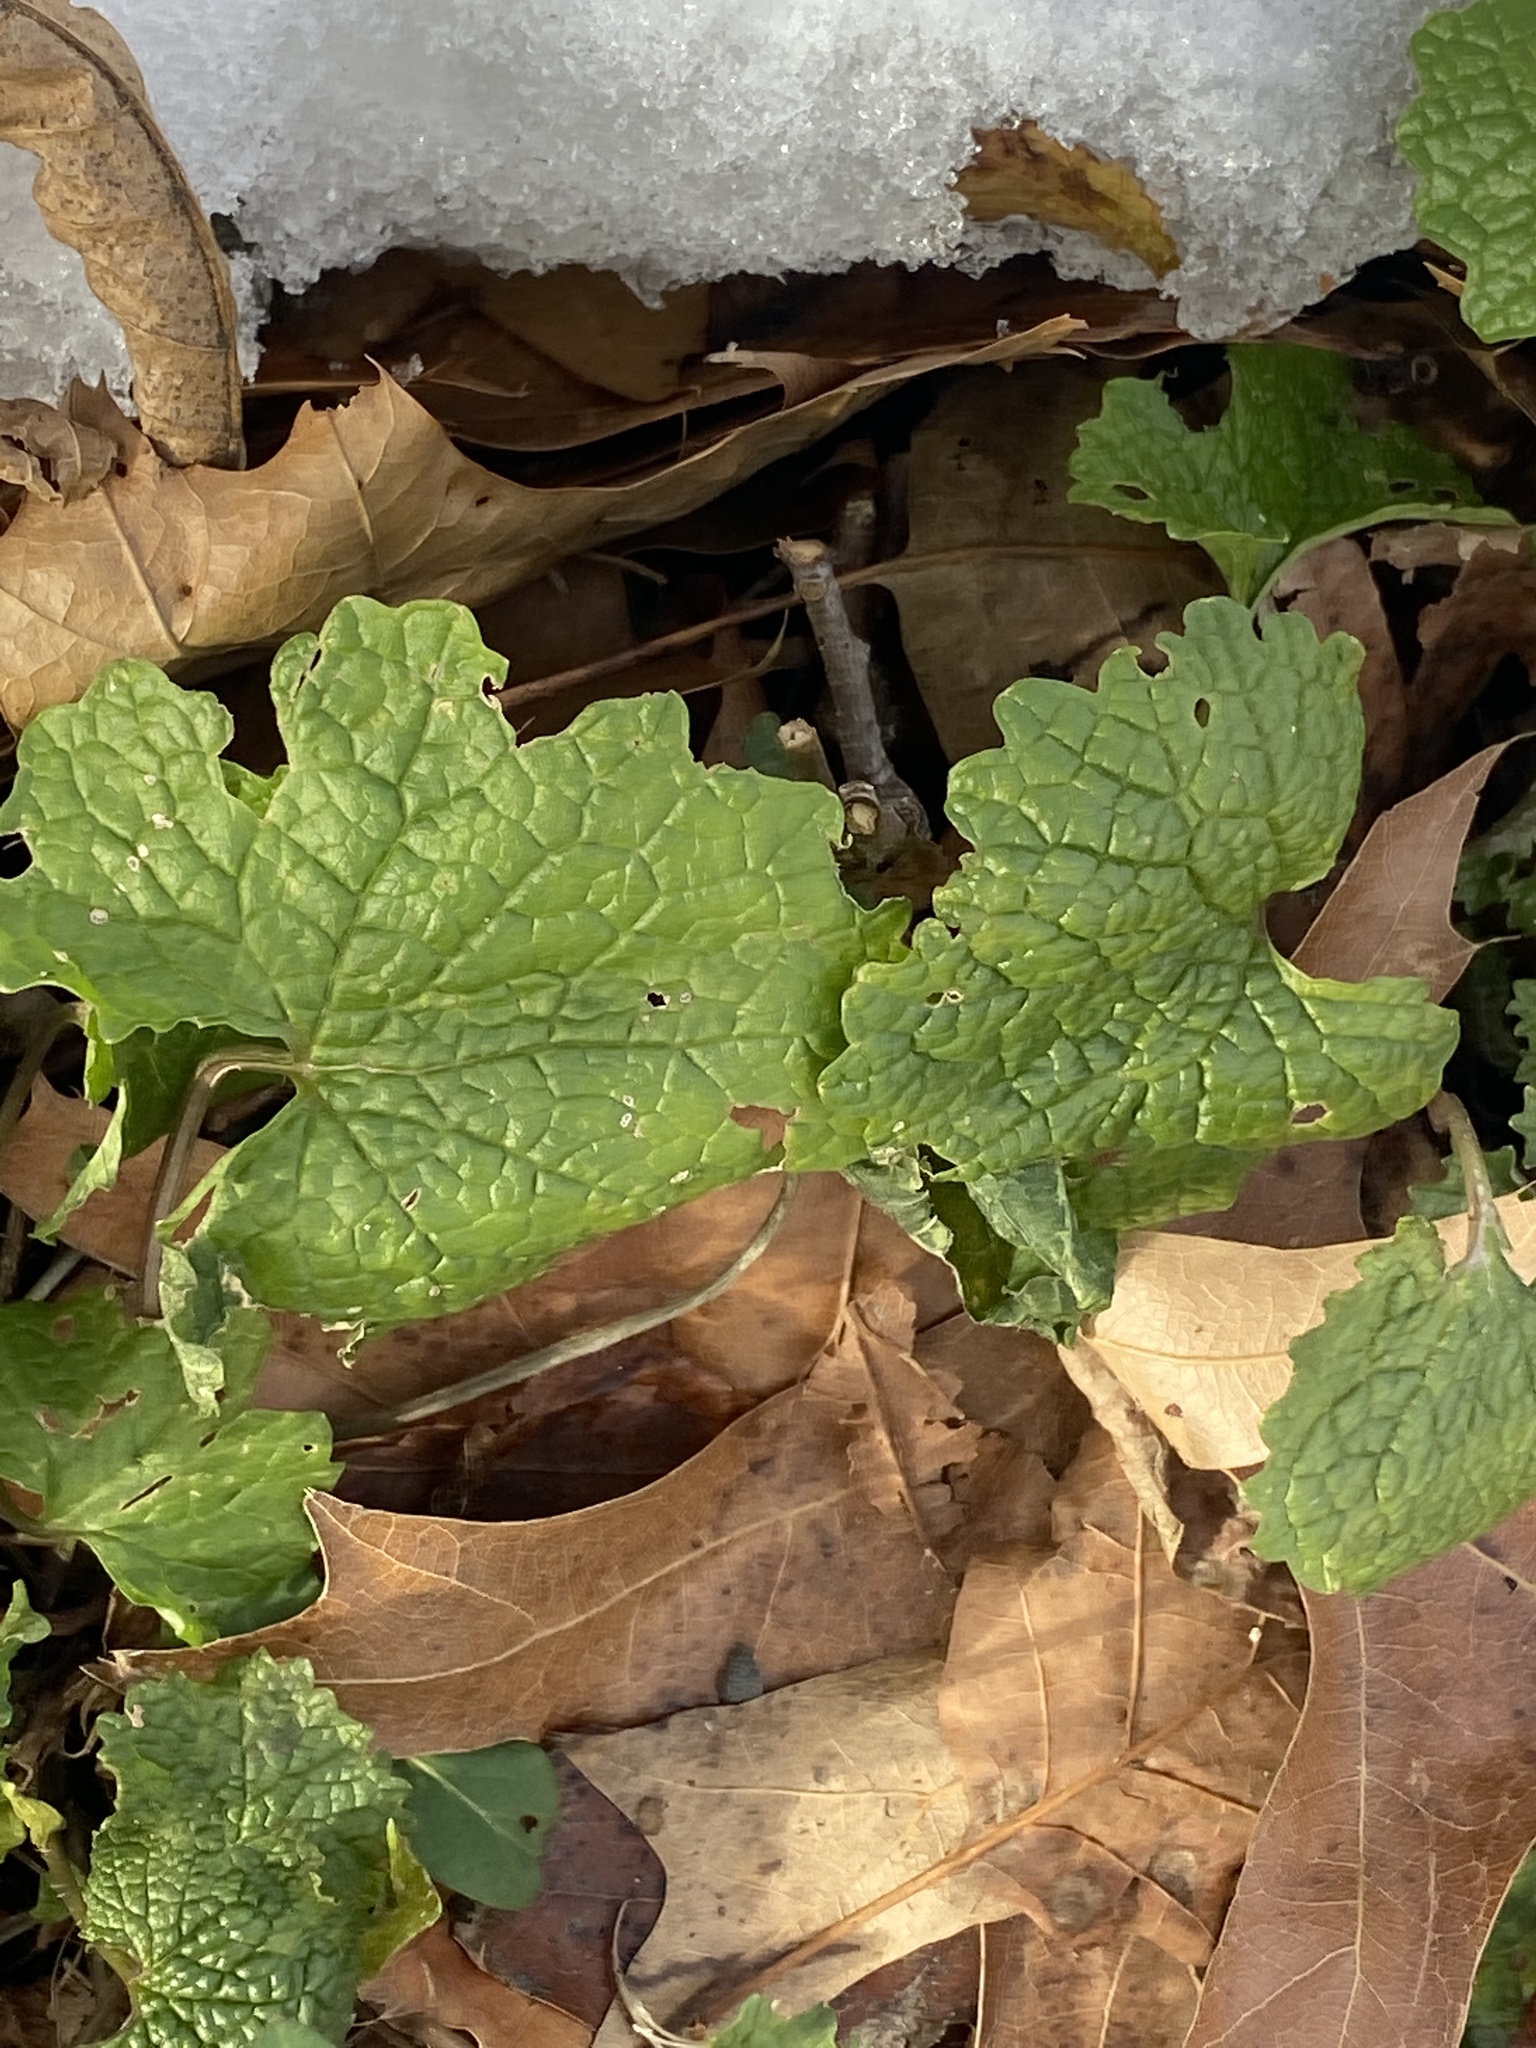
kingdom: Plantae
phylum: Tracheophyta
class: Magnoliopsida
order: Brassicales
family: Brassicaceae
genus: Alliaria
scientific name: Alliaria petiolata
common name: Garlic mustard
